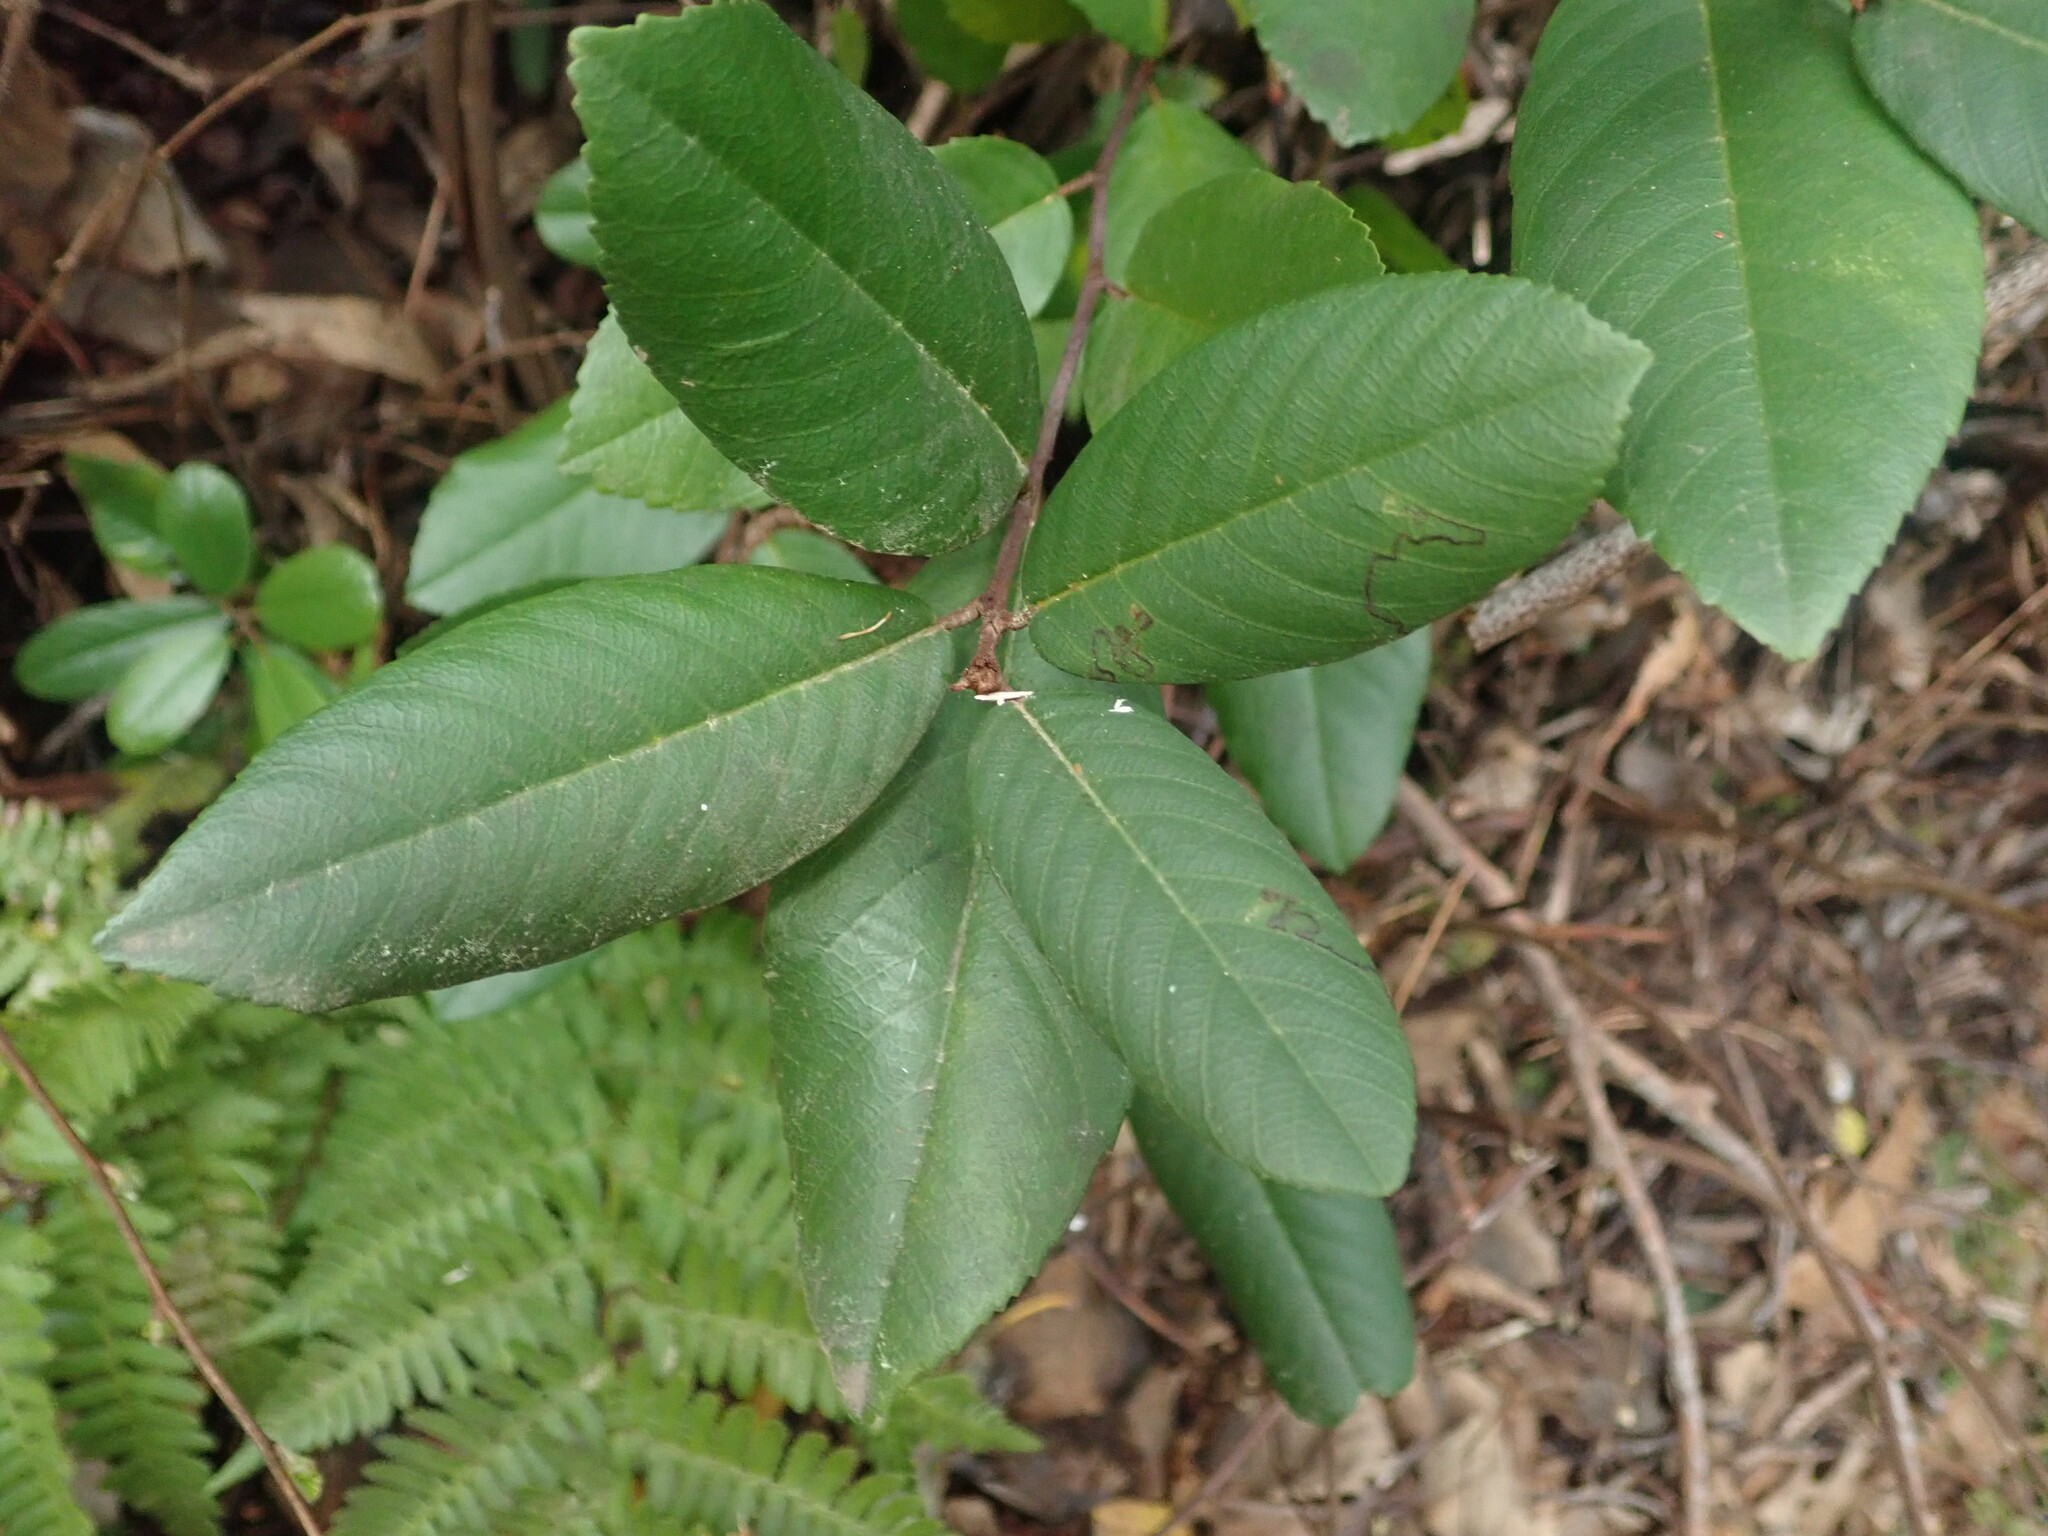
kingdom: Plantae
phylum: Tracheophyta
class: Magnoliopsida
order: Rosales
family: Rhamnaceae
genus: Frangula
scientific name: Frangula californica
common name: California buckthorn
